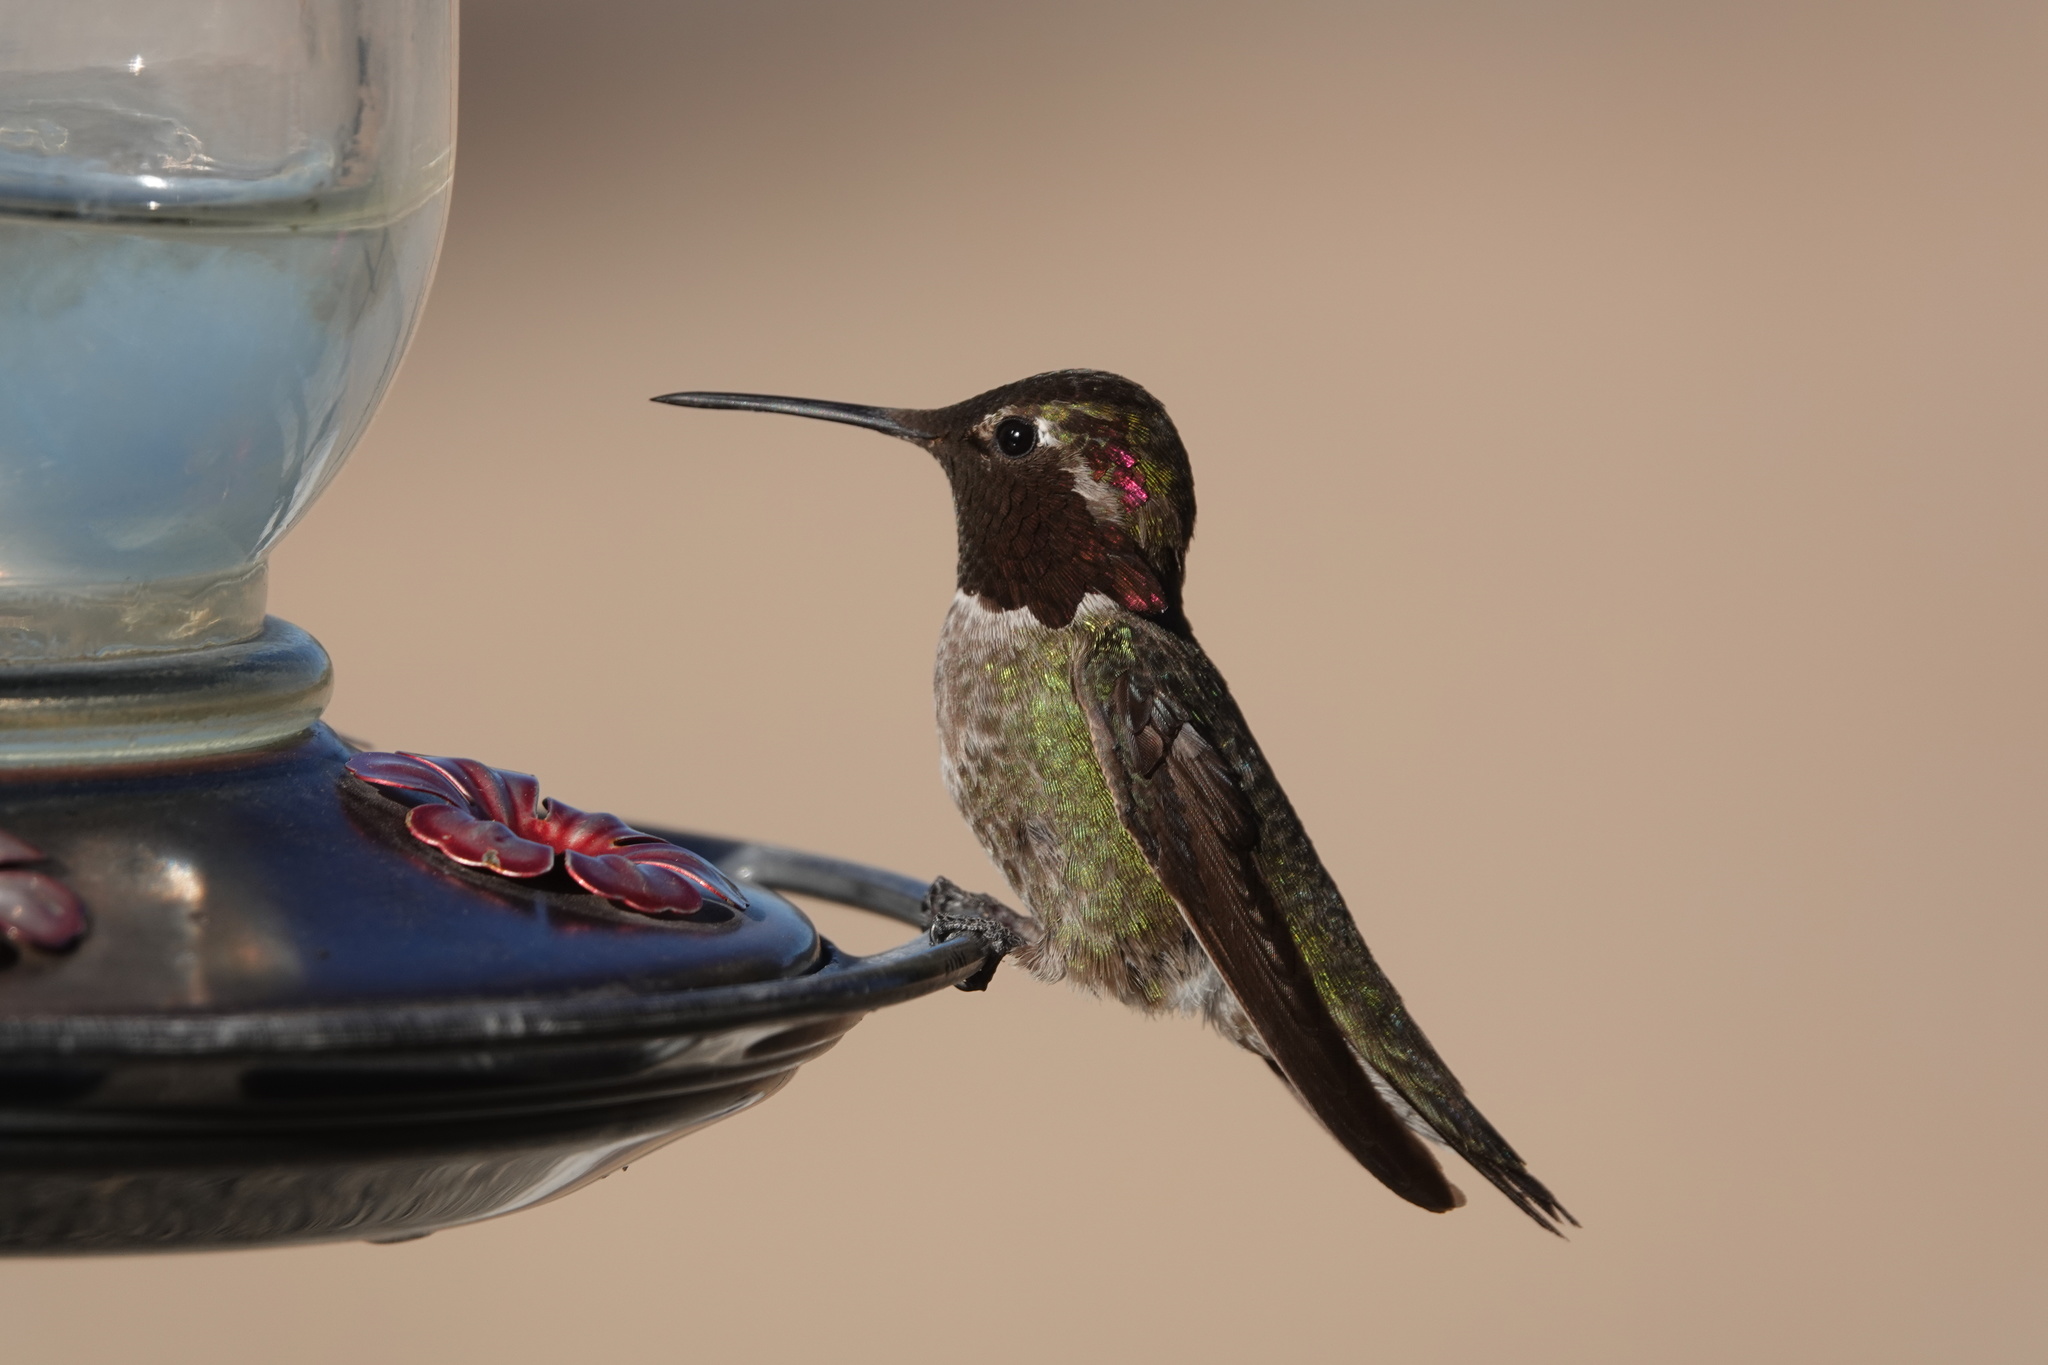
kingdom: Animalia
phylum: Chordata
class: Aves
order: Apodiformes
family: Trochilidae
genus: Calypte
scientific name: Calypte anna
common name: Anna's hummingbird
